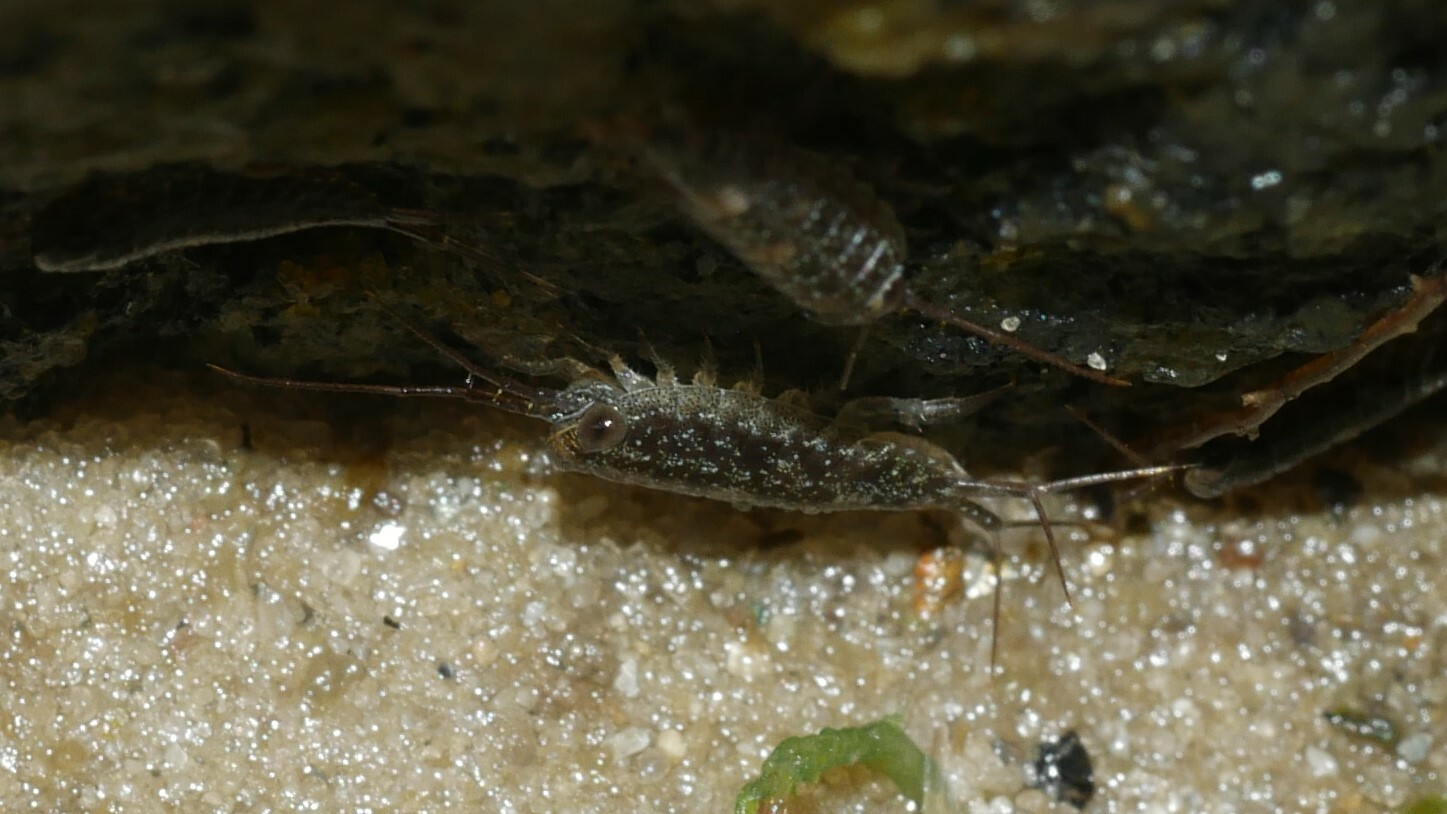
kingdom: Animalia
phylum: Arthropoda
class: Malacostraca
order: Isopoda
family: Ligiidae
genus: Ligia
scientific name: Ligia exotica
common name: Wharf roach
